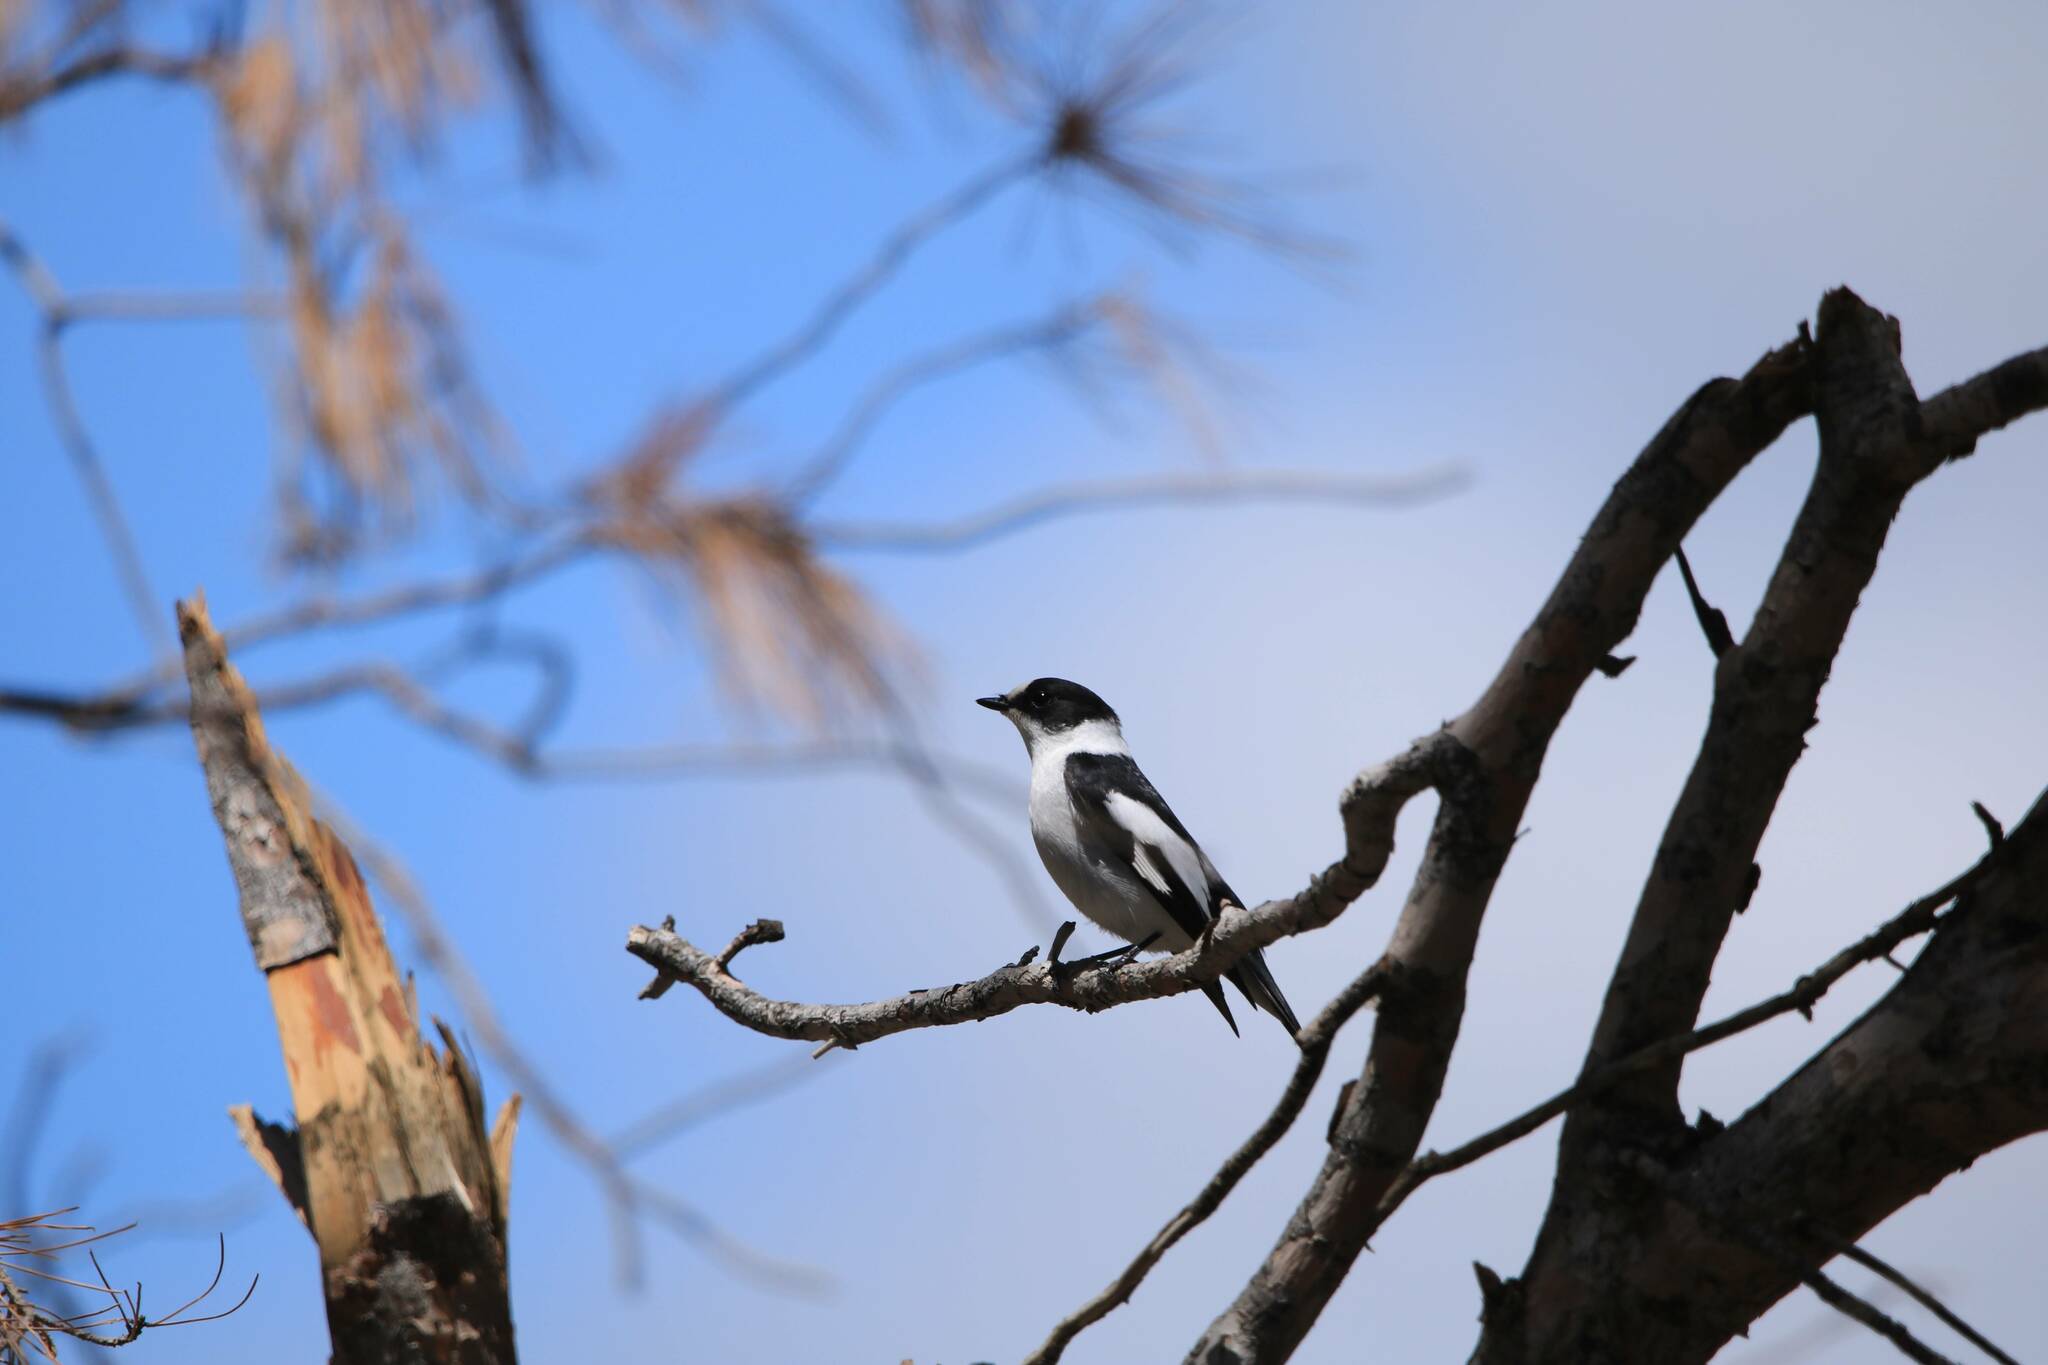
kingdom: Animalia
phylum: Chordata
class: Aves
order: Passeriformes
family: Muscicapidae
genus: Ficedula
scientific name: Ficedula albicollis
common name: Collared flycatcher
